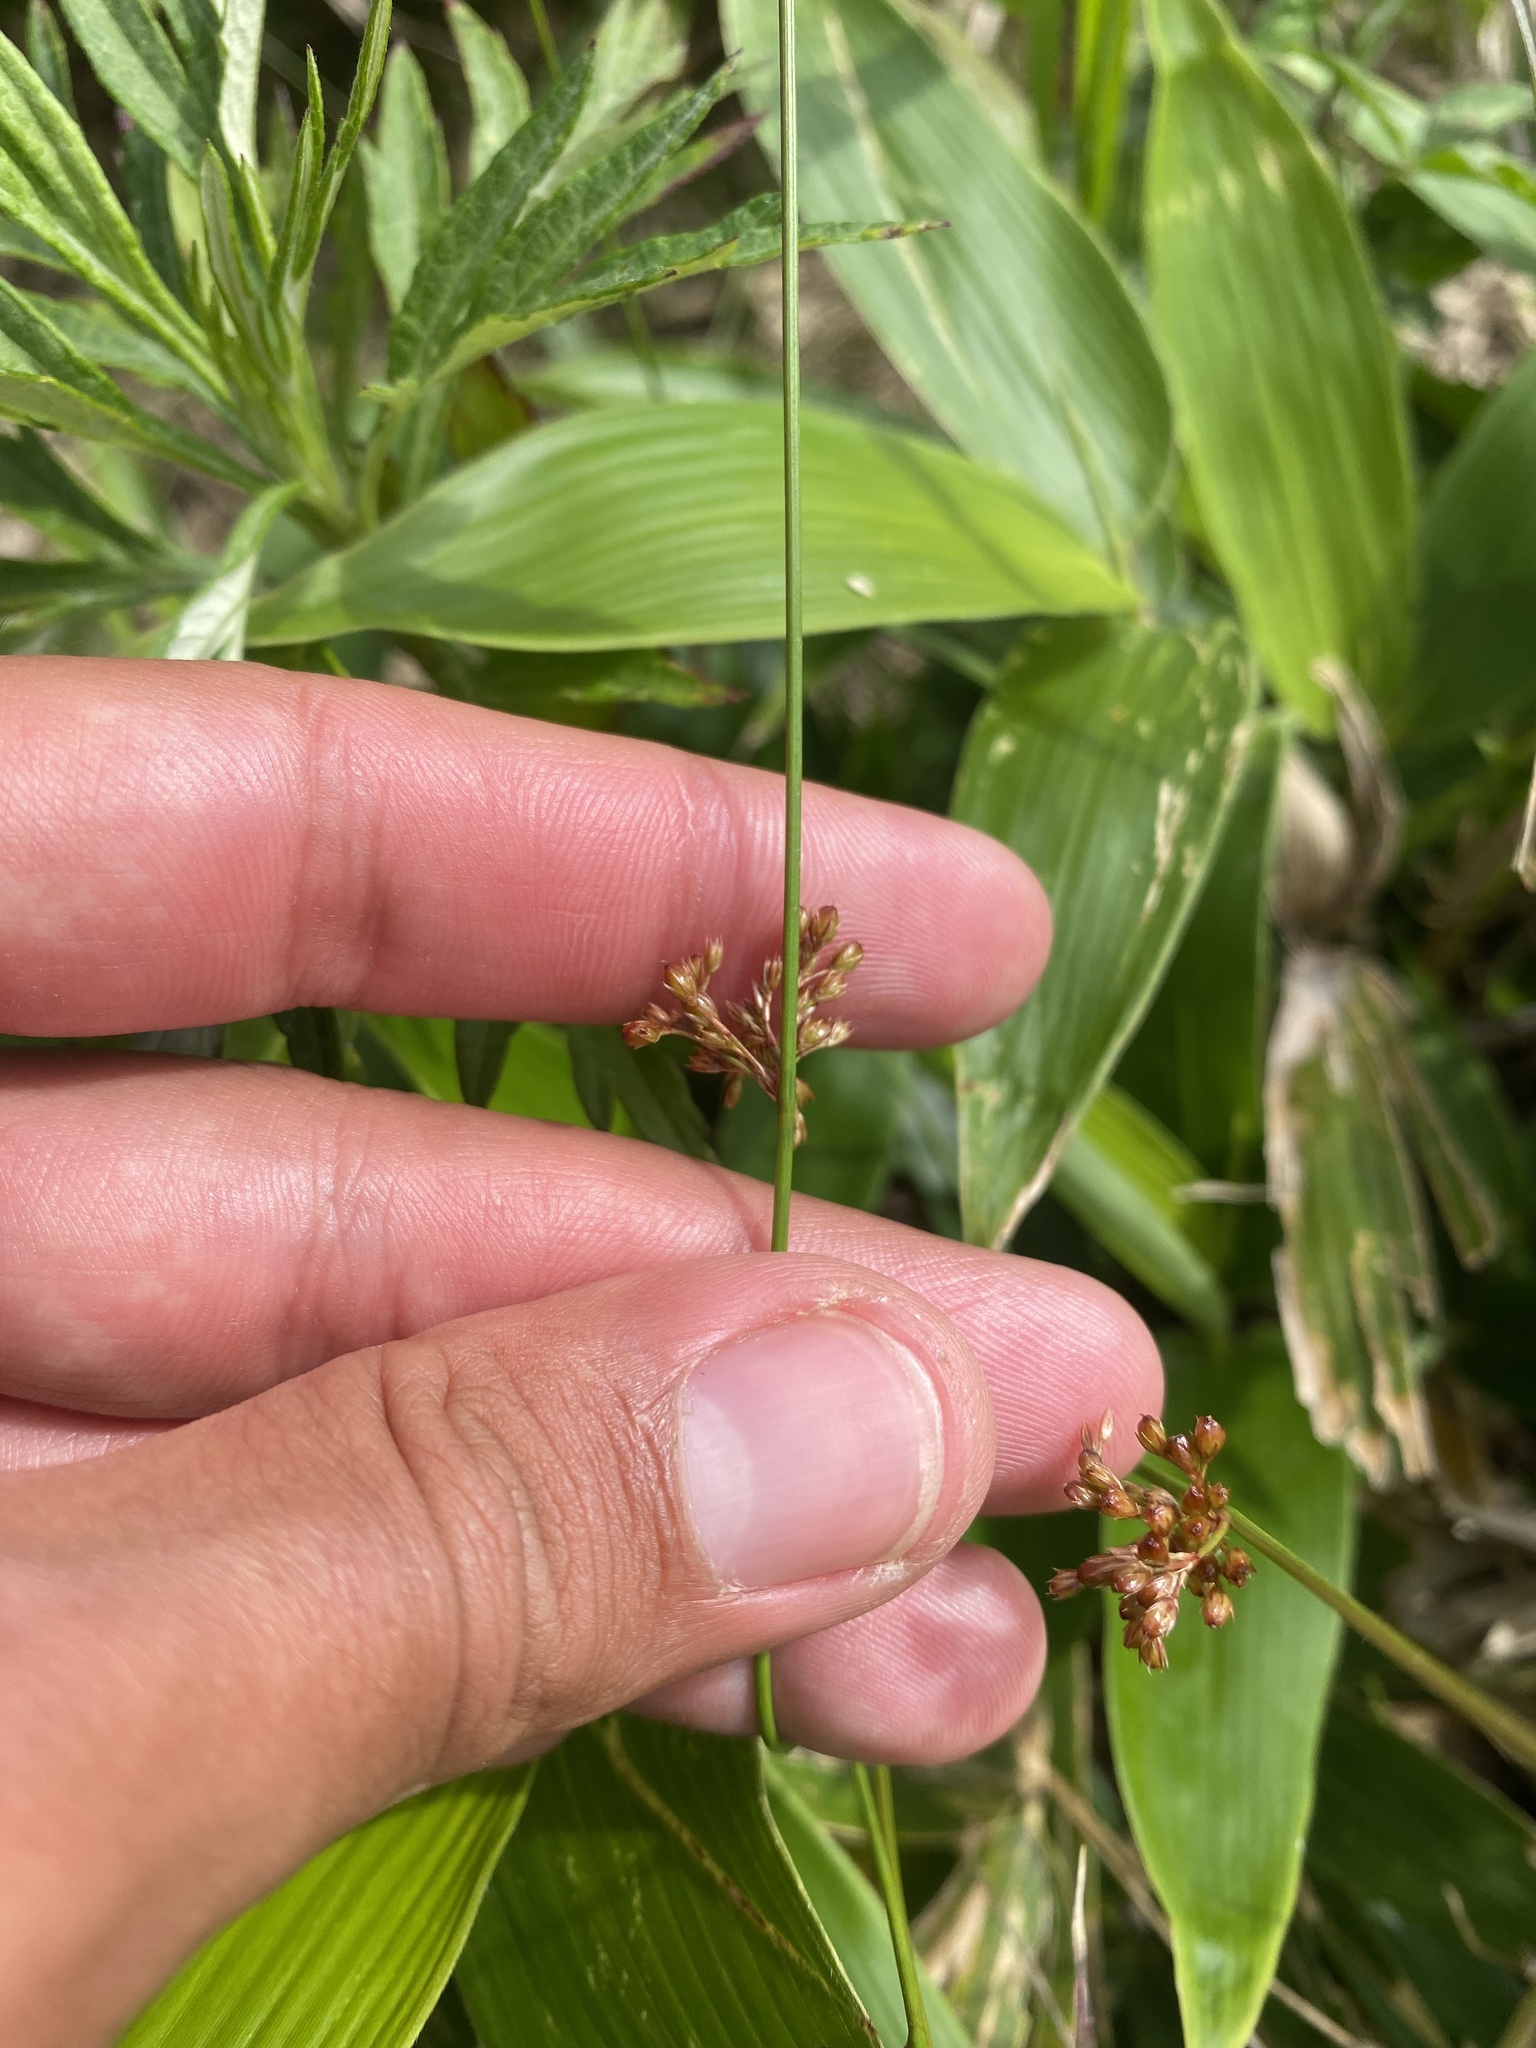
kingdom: Plantae
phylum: Tracheophyta
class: Liliopsida
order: Poales
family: Juncaceae
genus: Juncus
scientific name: Juncus decipiens
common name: Lamp rush
